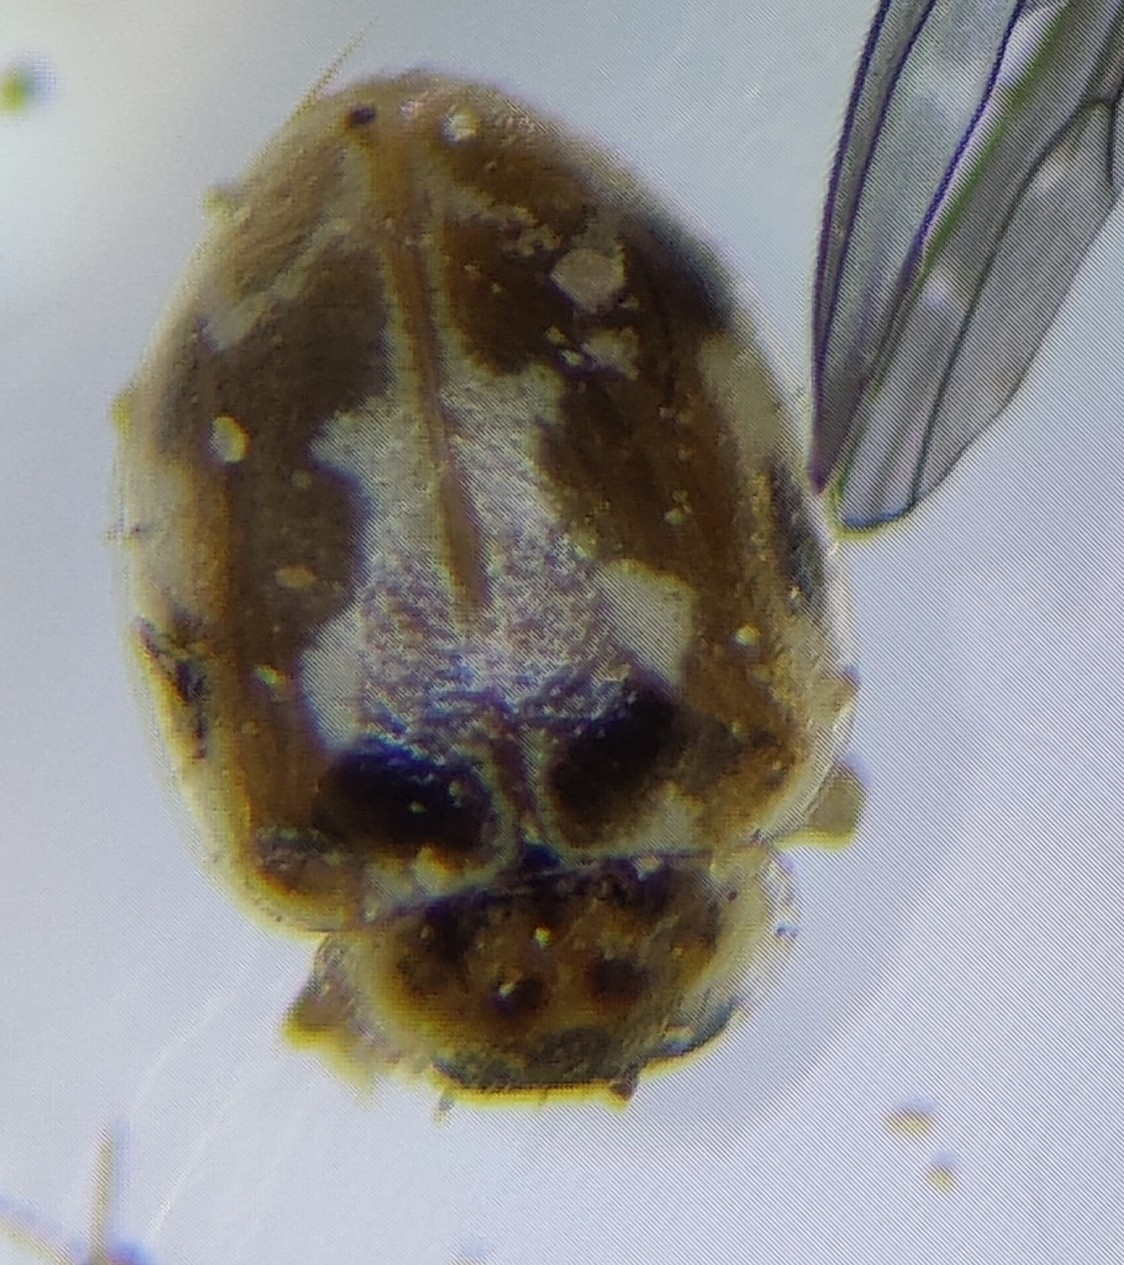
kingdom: Animalia
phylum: Arthropoda
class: Insecta
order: Coleoptera
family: Coccinellidae
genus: Psyllobora
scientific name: Psyllobora vigintimaculata
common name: Ladybird beetle
